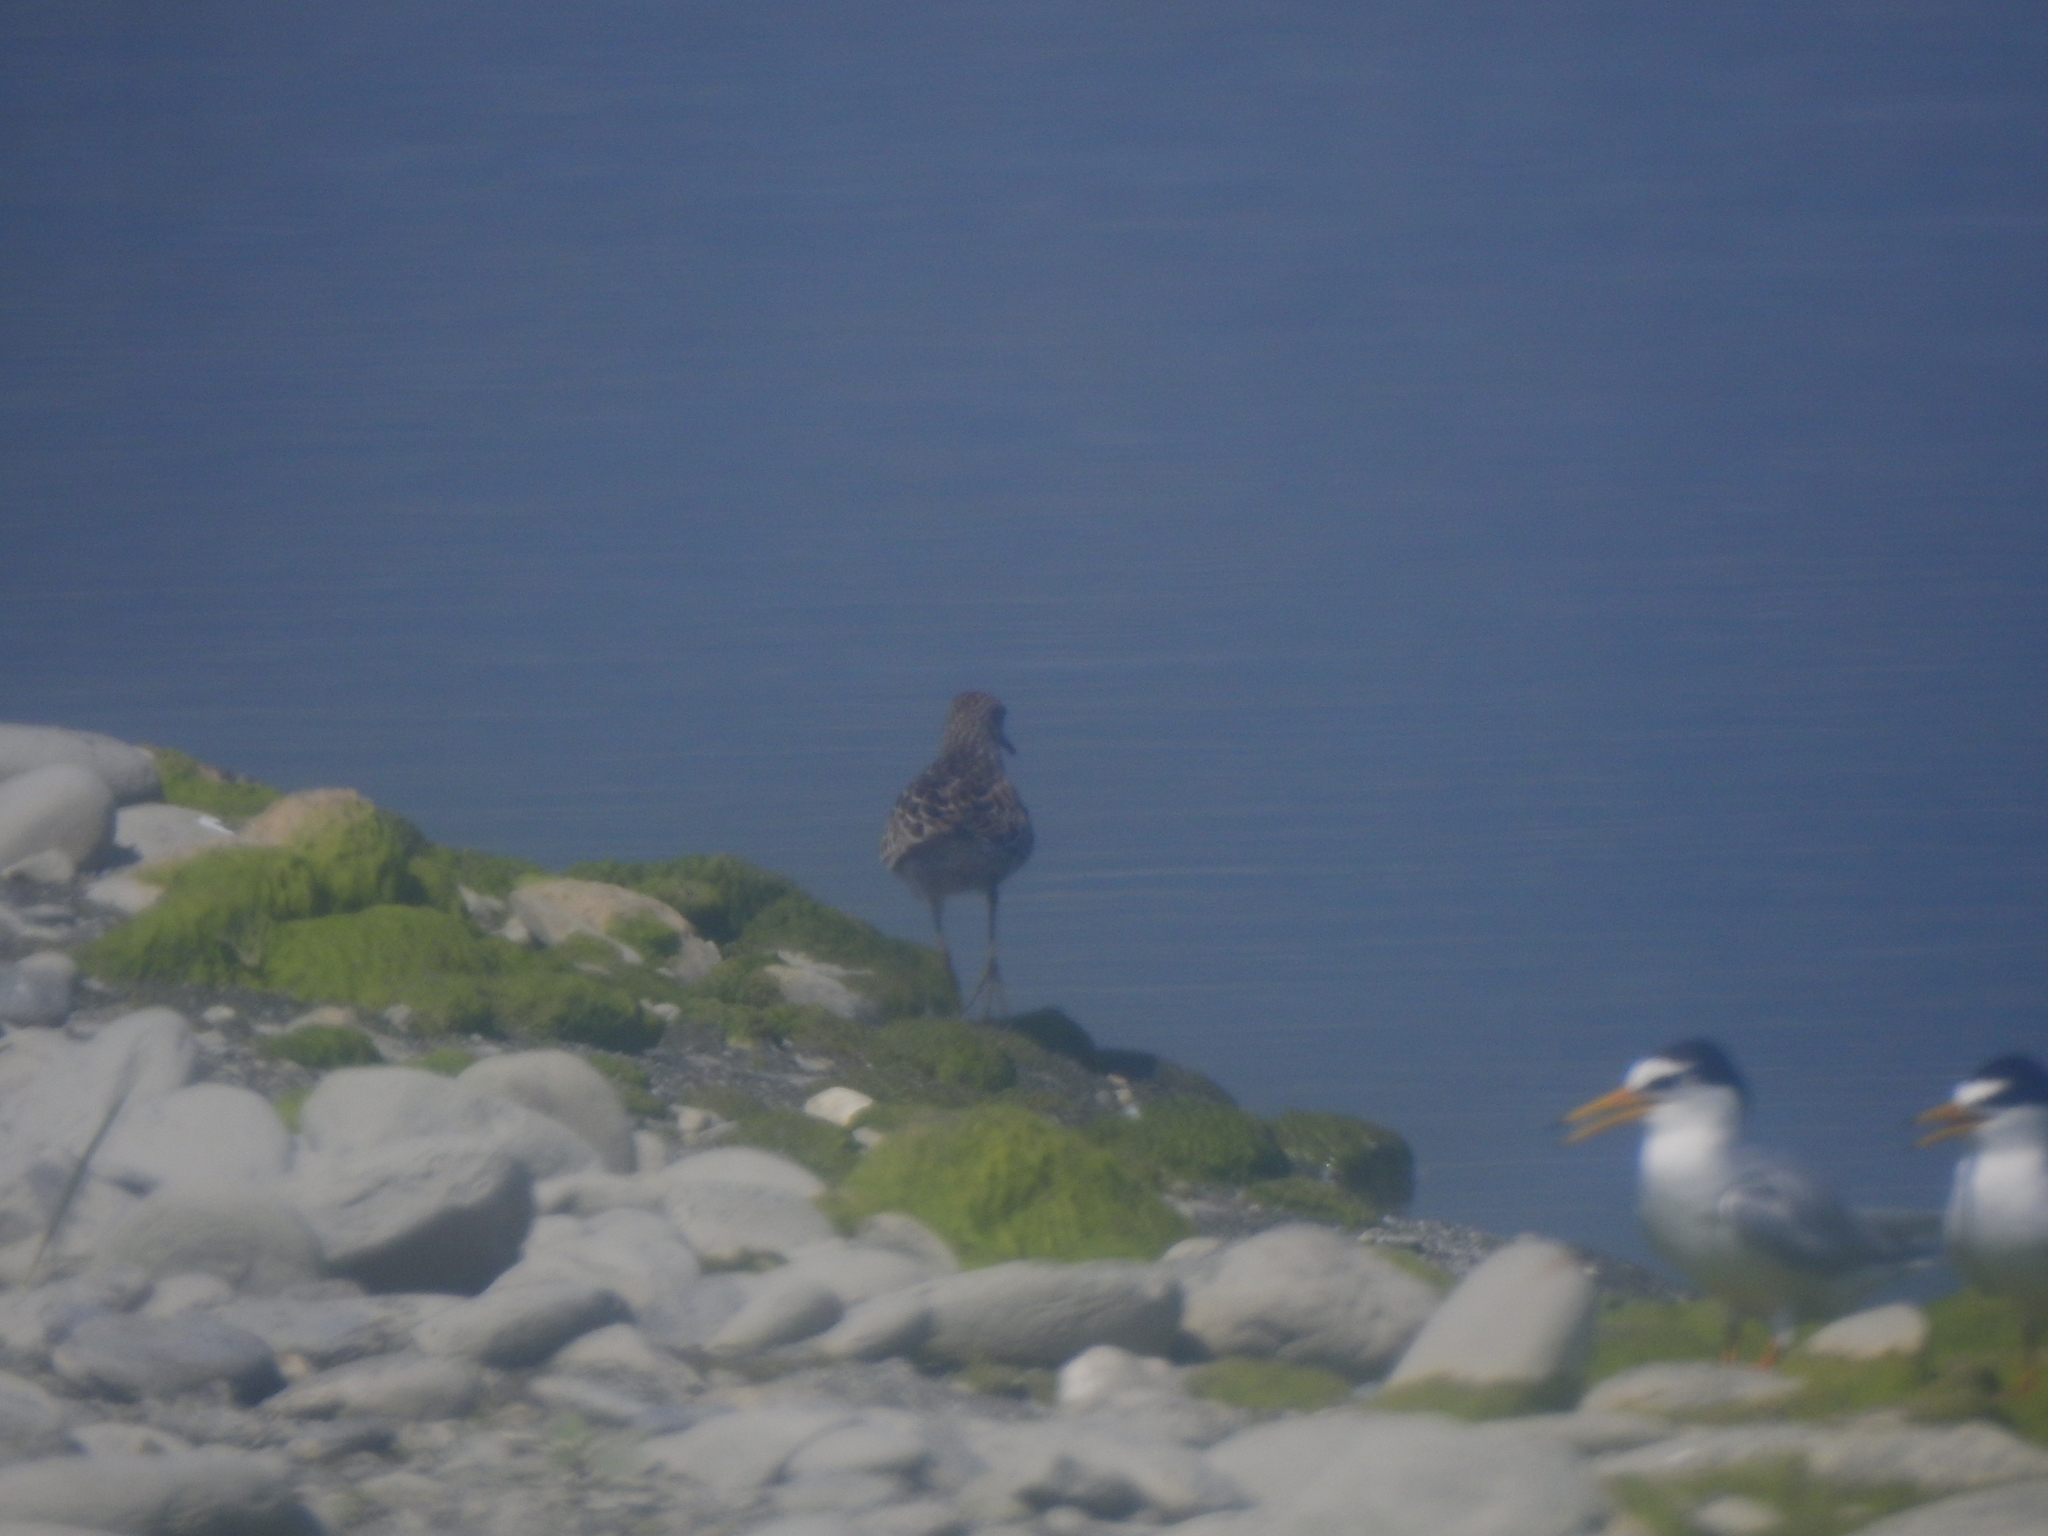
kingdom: Animalia
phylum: Chordata
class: Aves
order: Charadriiformes
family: Scolopacidae
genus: Calidris
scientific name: Calidris acuminata
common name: Sharp-tailed sandpiper
